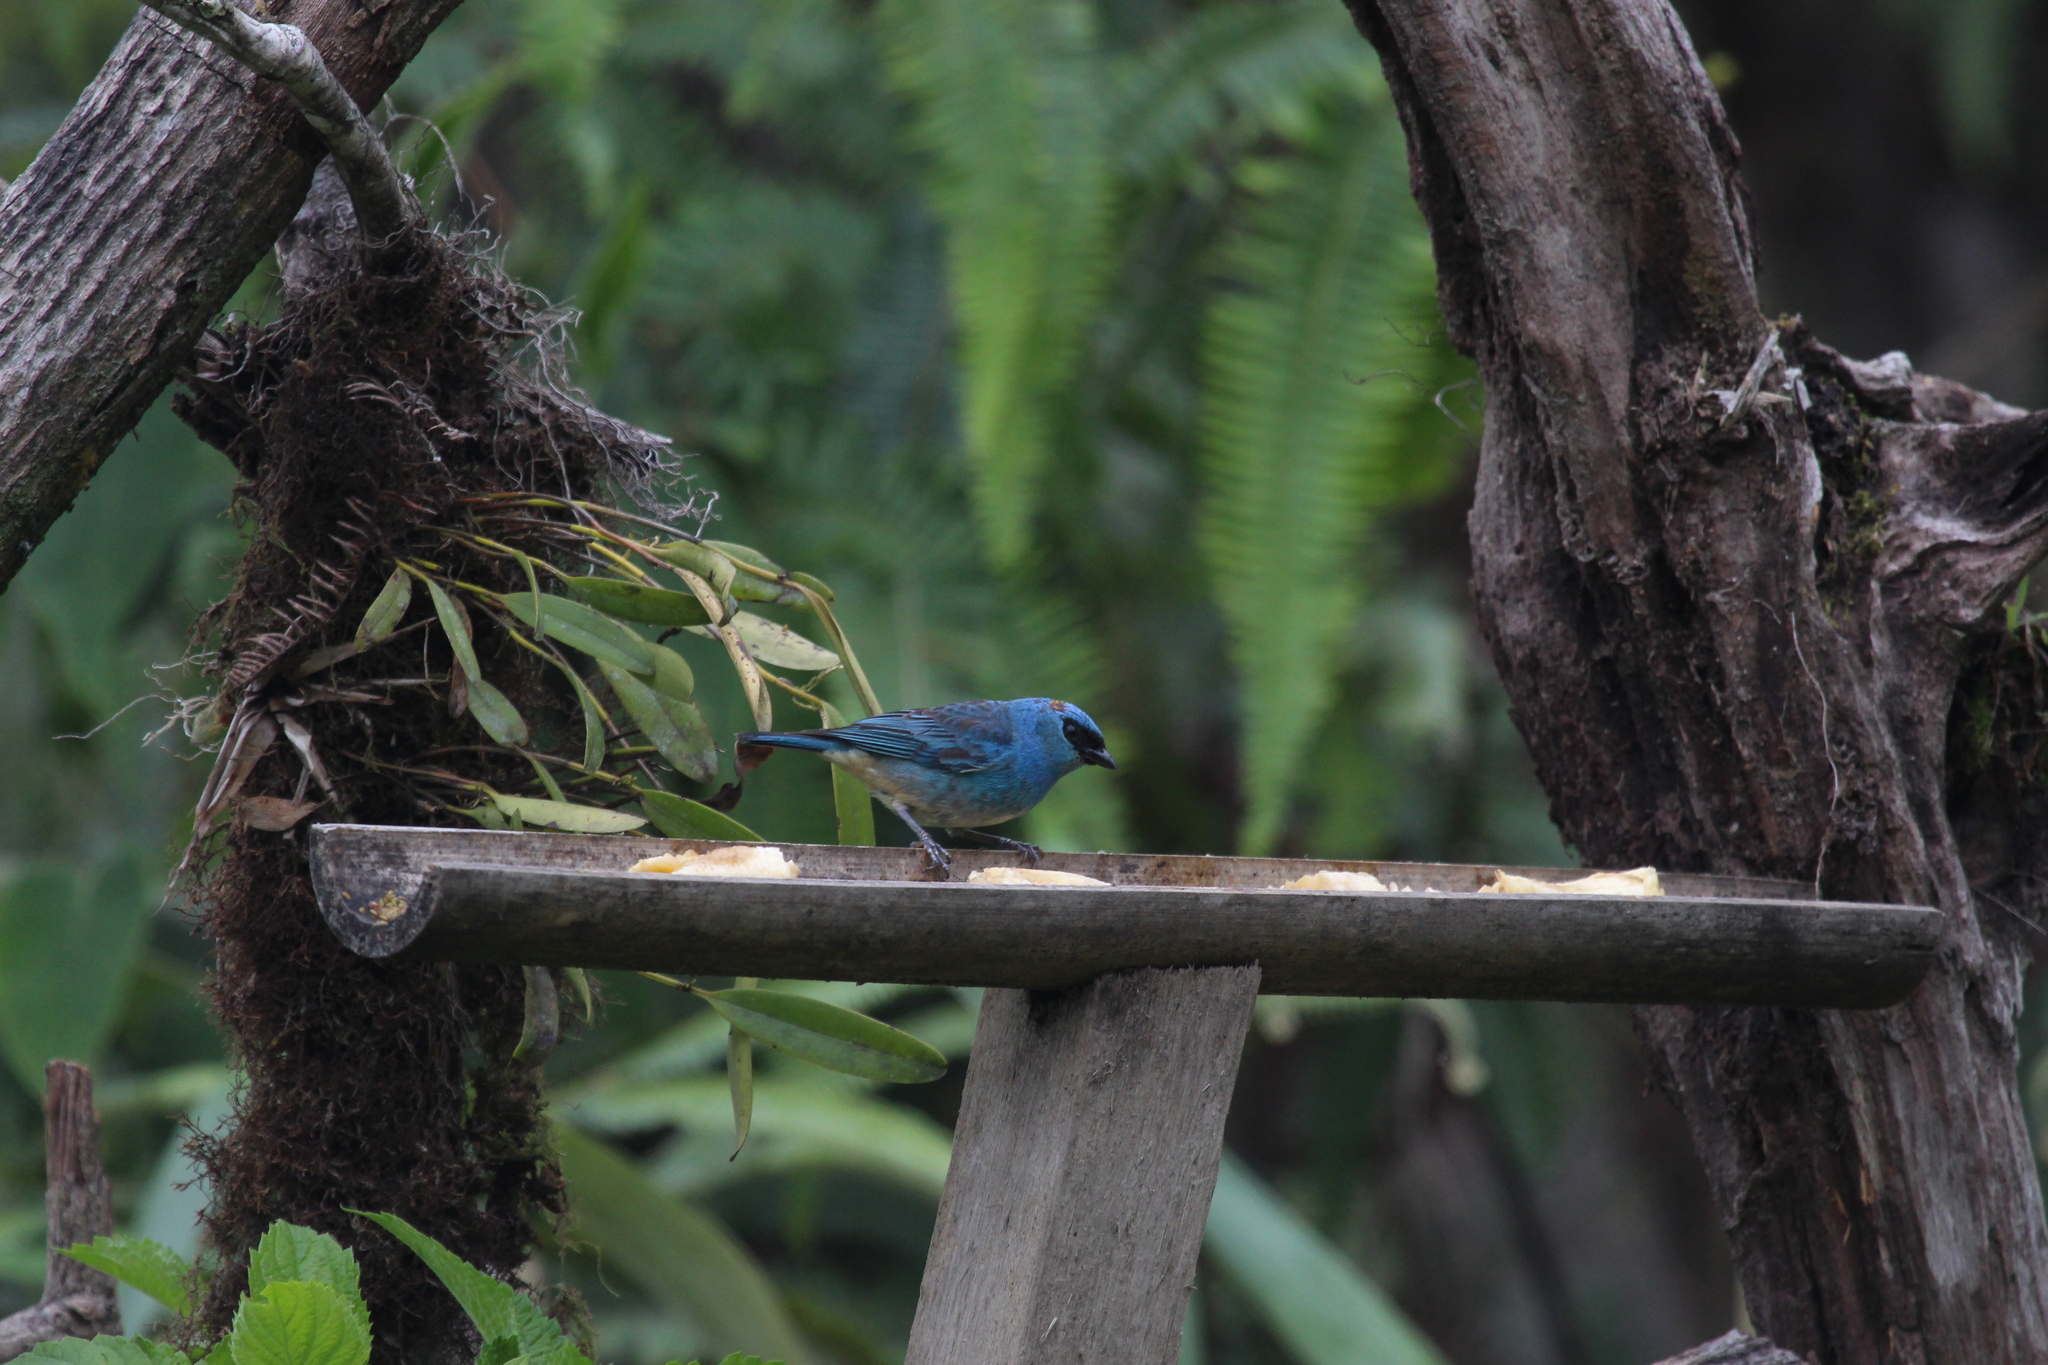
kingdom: Animalia
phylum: Chordata
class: Aves
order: Passeriformes
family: Thraupidae
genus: Chalcothraupis
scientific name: Chalcothraupis ruficervix
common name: Golden-naped tanager
